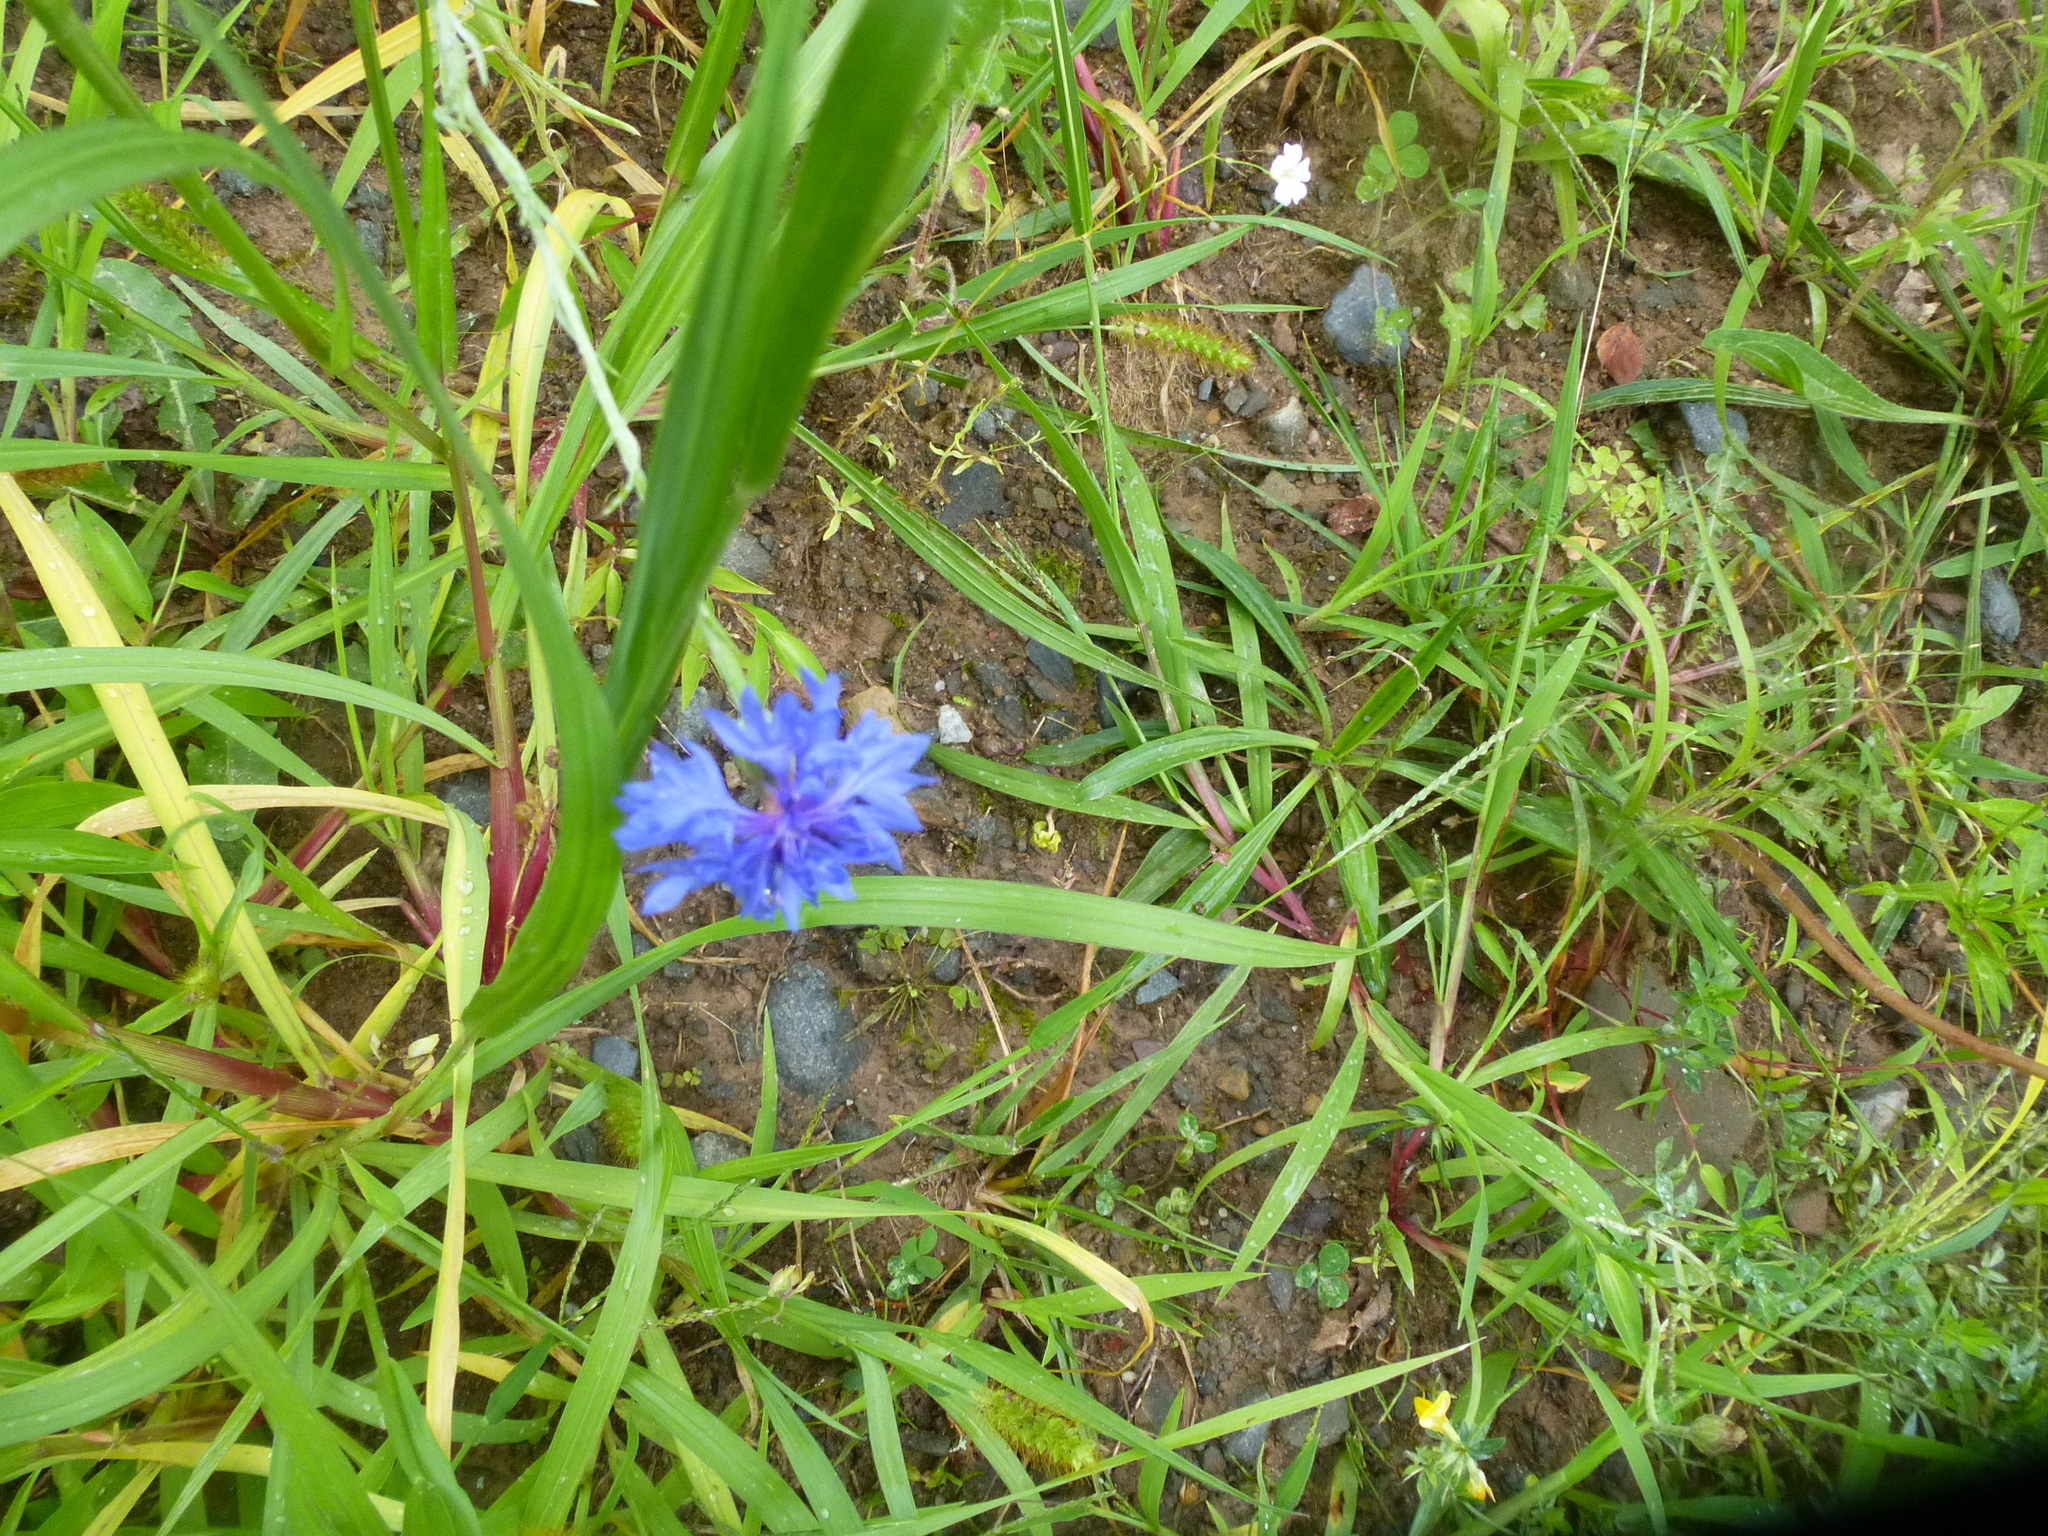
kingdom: Plantae
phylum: Tracheophyta
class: Magnoliopsida
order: Asterales
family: Asteraceae
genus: Centaurea
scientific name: Centaurea cyanus
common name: Cornflower
